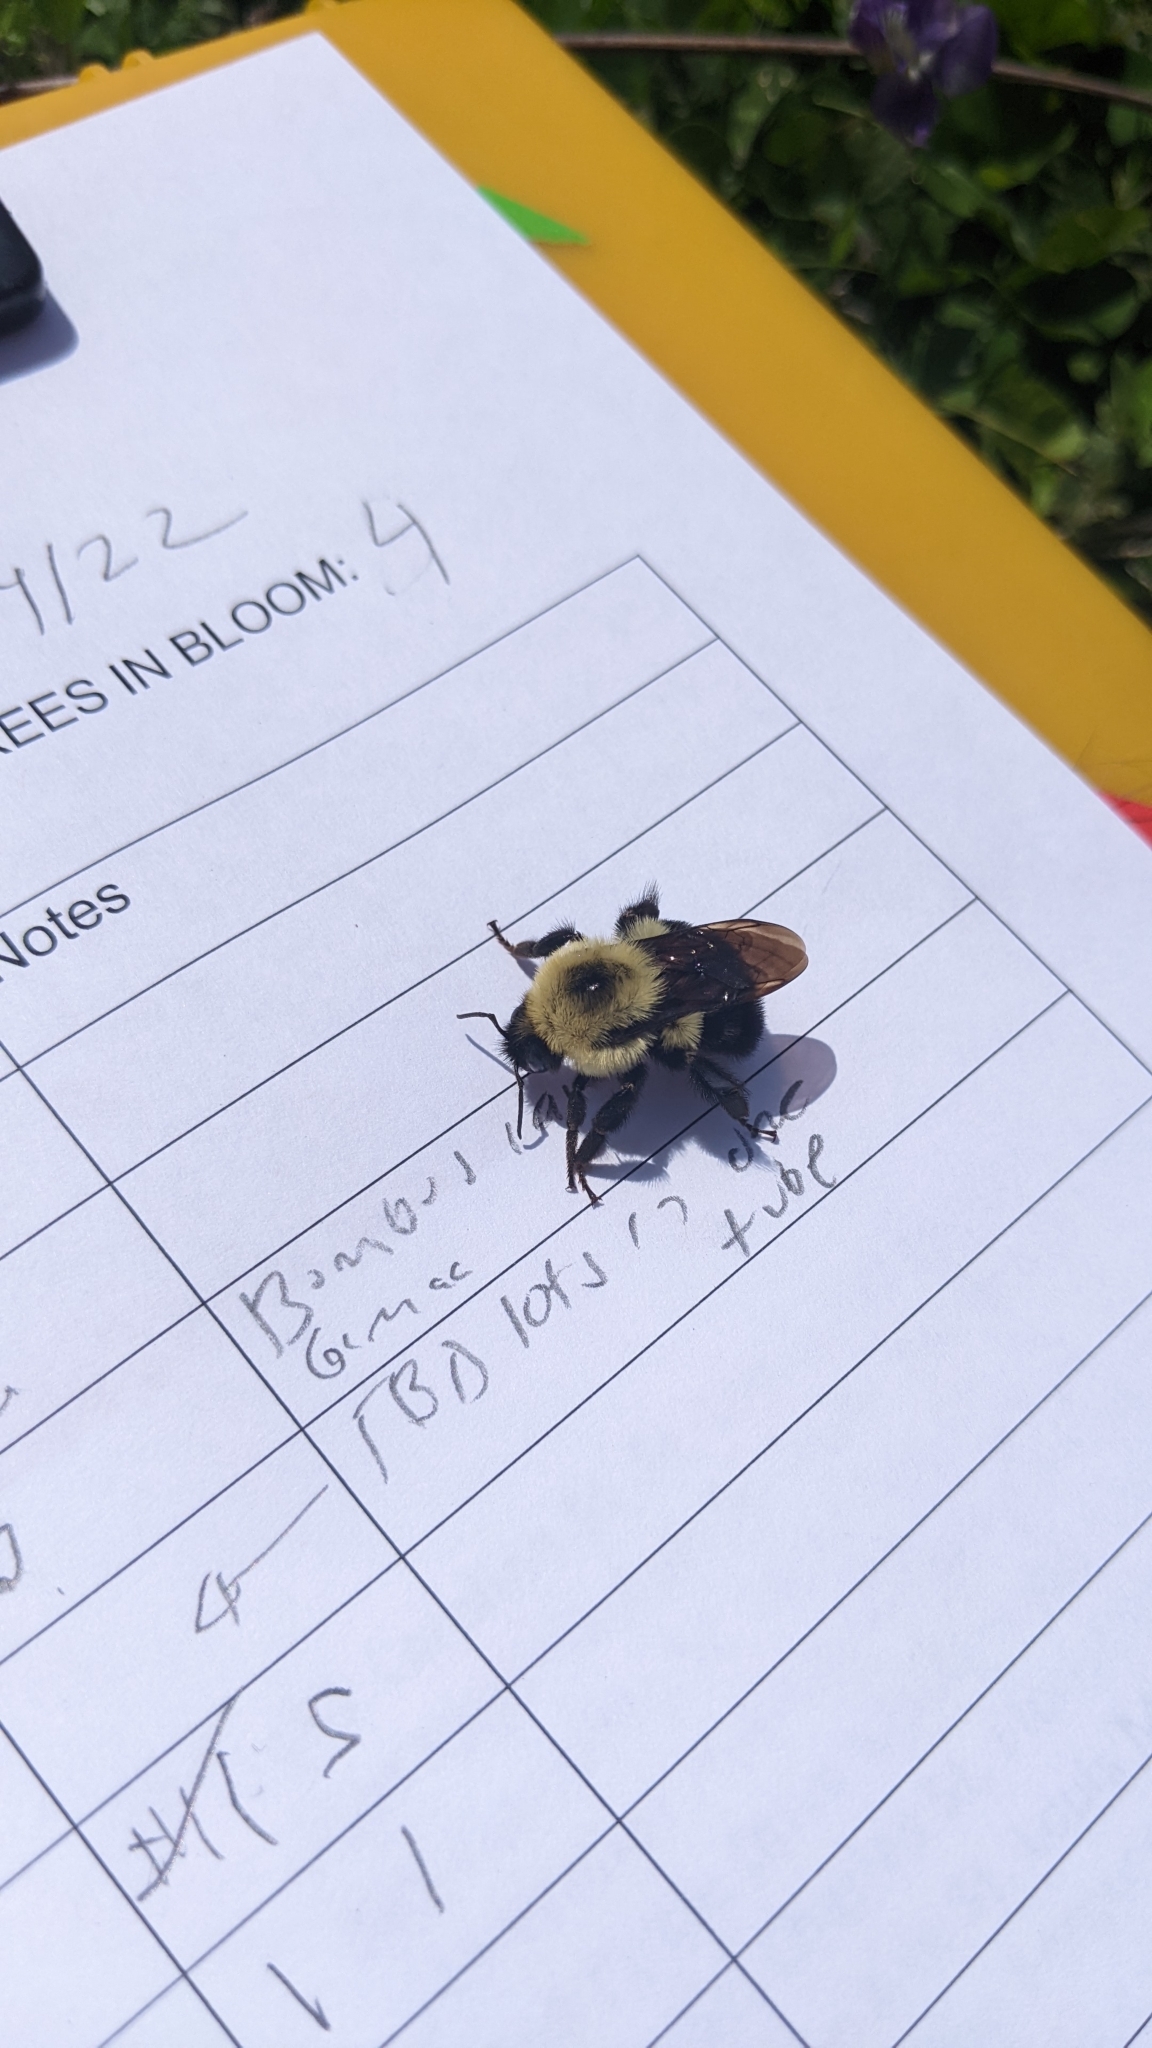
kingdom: Animalia
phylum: Arthropoda
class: Insecta
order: Hymenoptera
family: Apidae
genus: Bombus
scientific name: Bombus bimaculatus
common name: Two-spotted bumble bee
